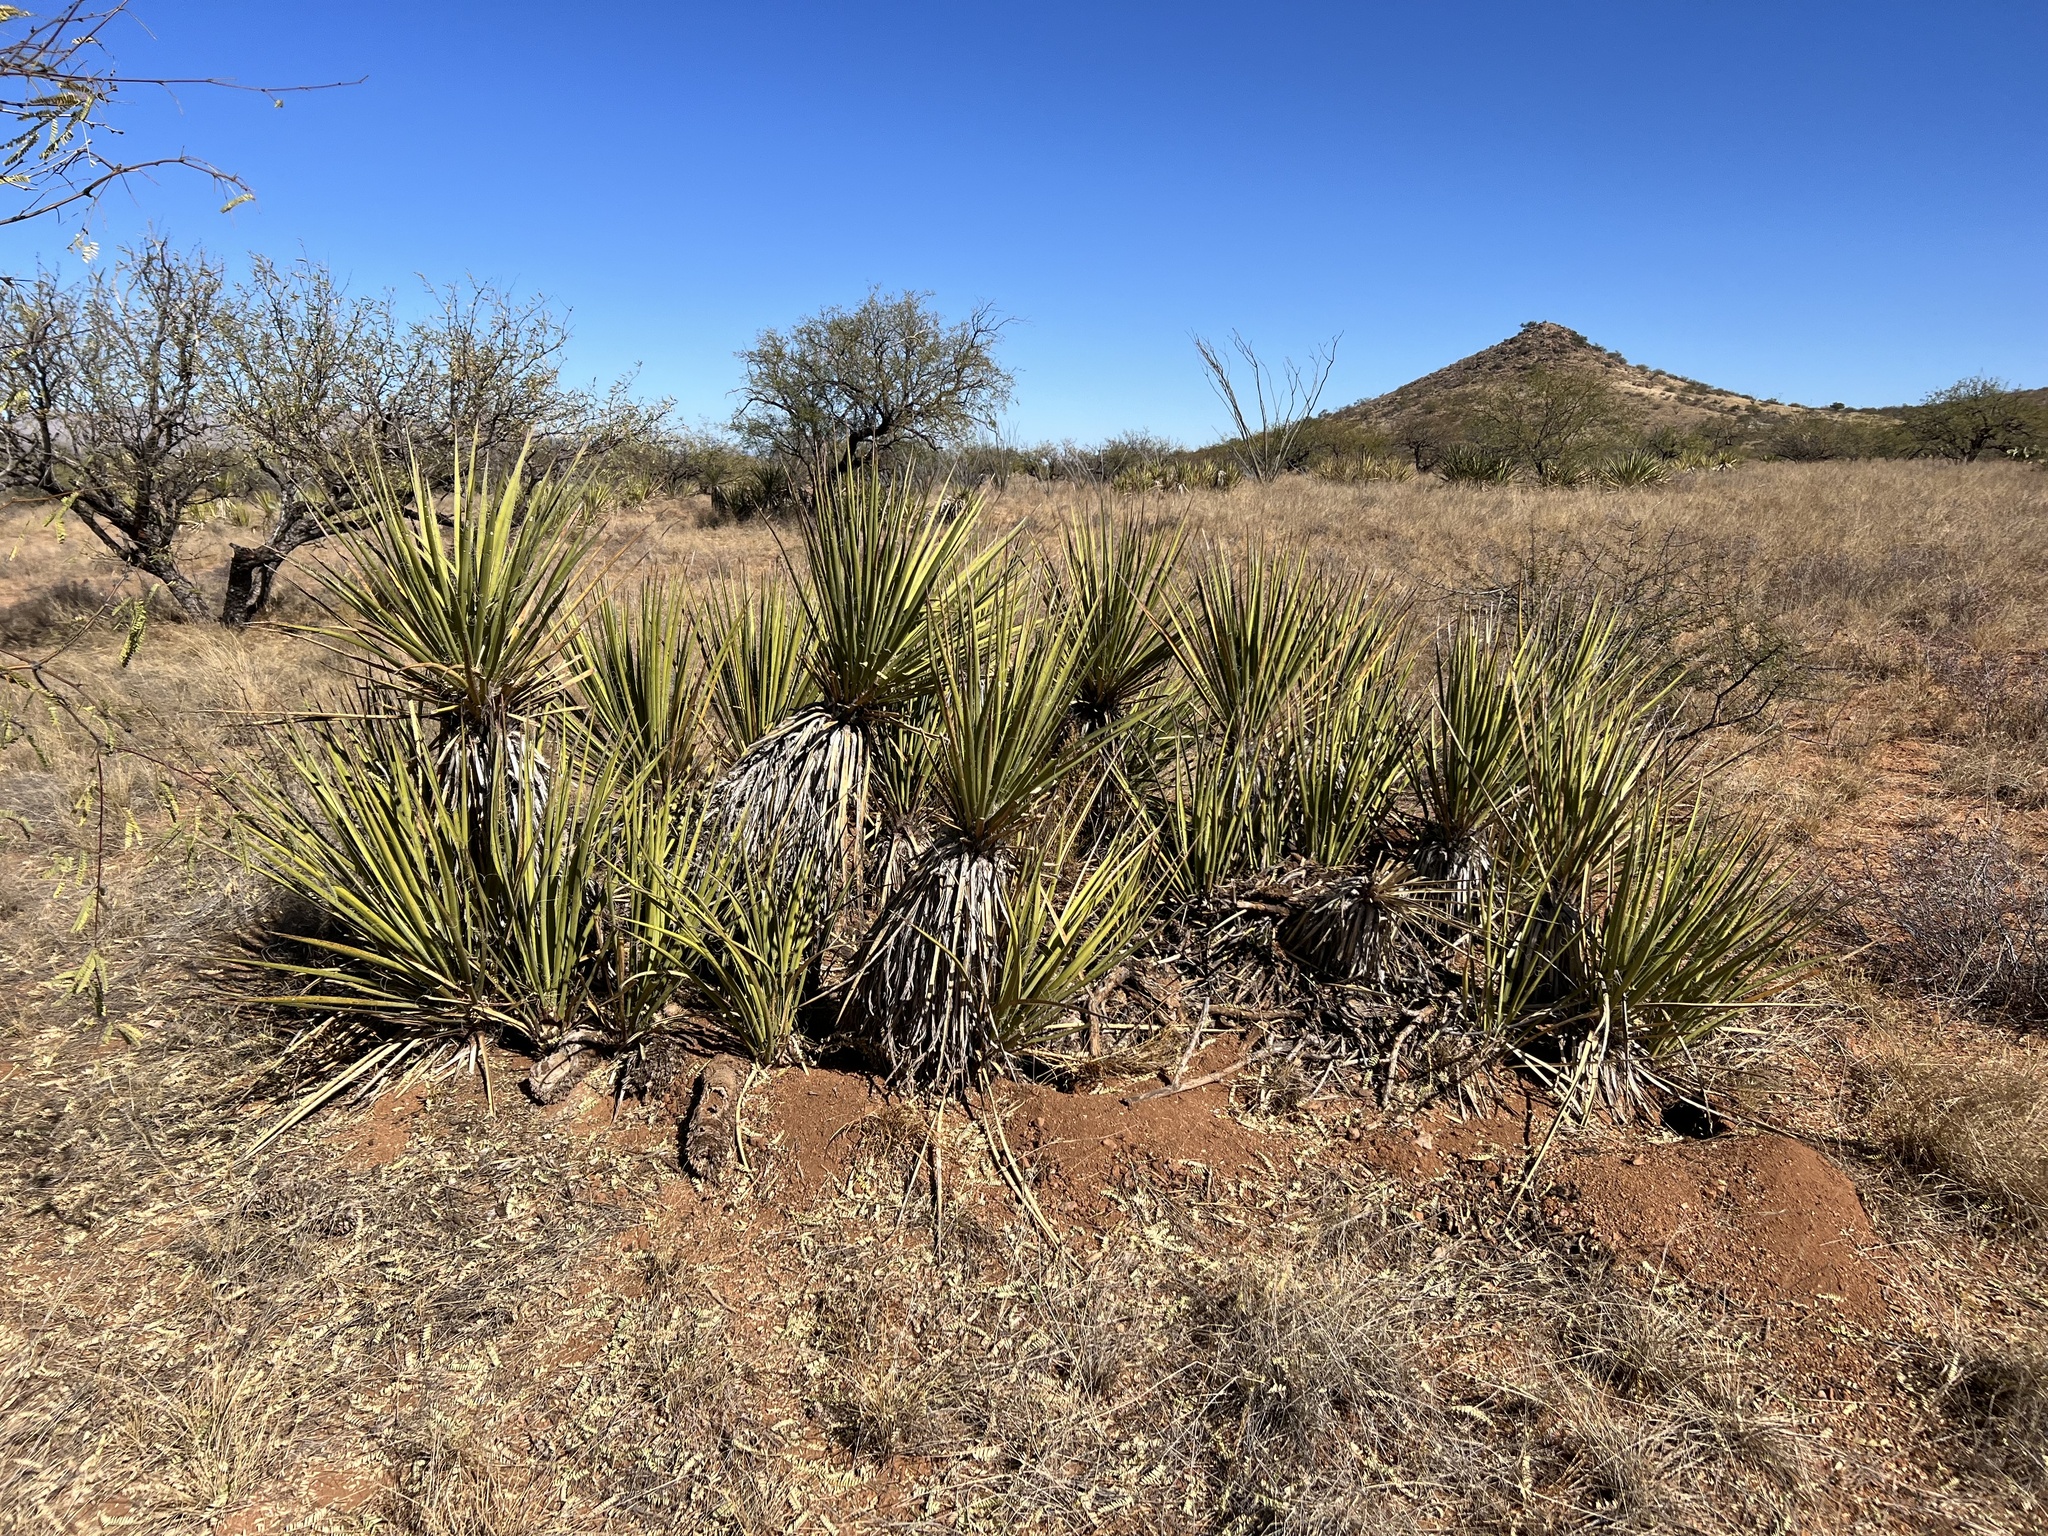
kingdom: Plantae
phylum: Tracheophyta
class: Liliopsida
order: Asparagales
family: Asparagaceae
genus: Yucca
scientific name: Yucca baccata
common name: Banana yucca
